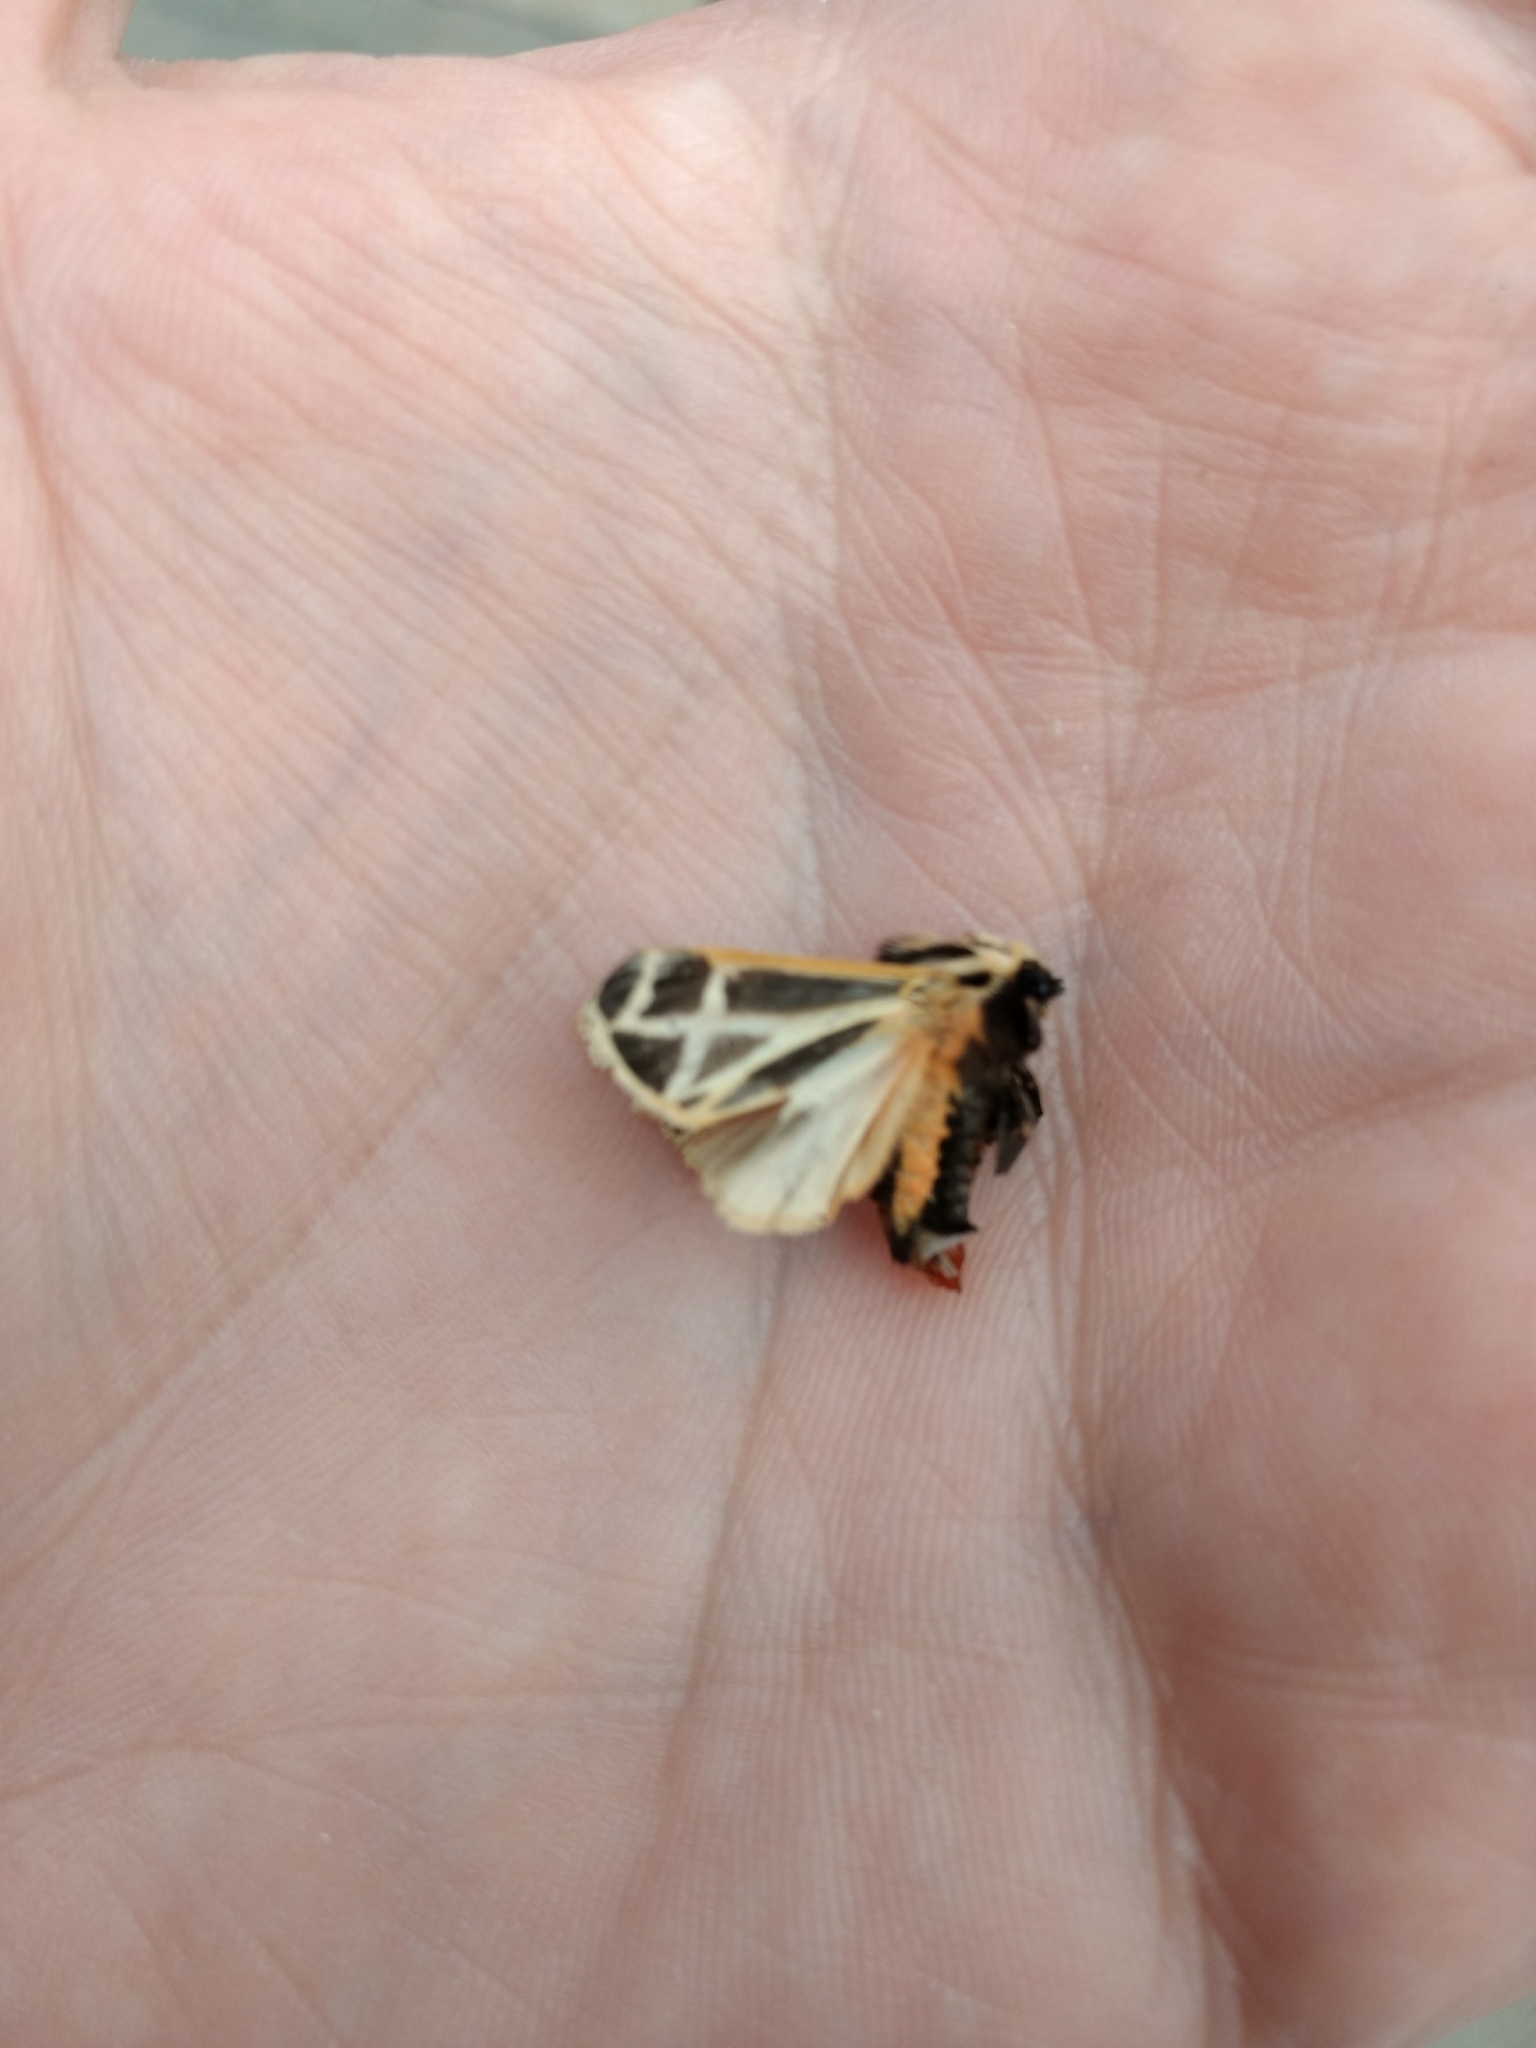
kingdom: Animalia
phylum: Arthropoda
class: Insecta
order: Lepidoptera
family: Erebidae
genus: Apantesis
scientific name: Apantesis phalerata
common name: Harnessed tiger moth
